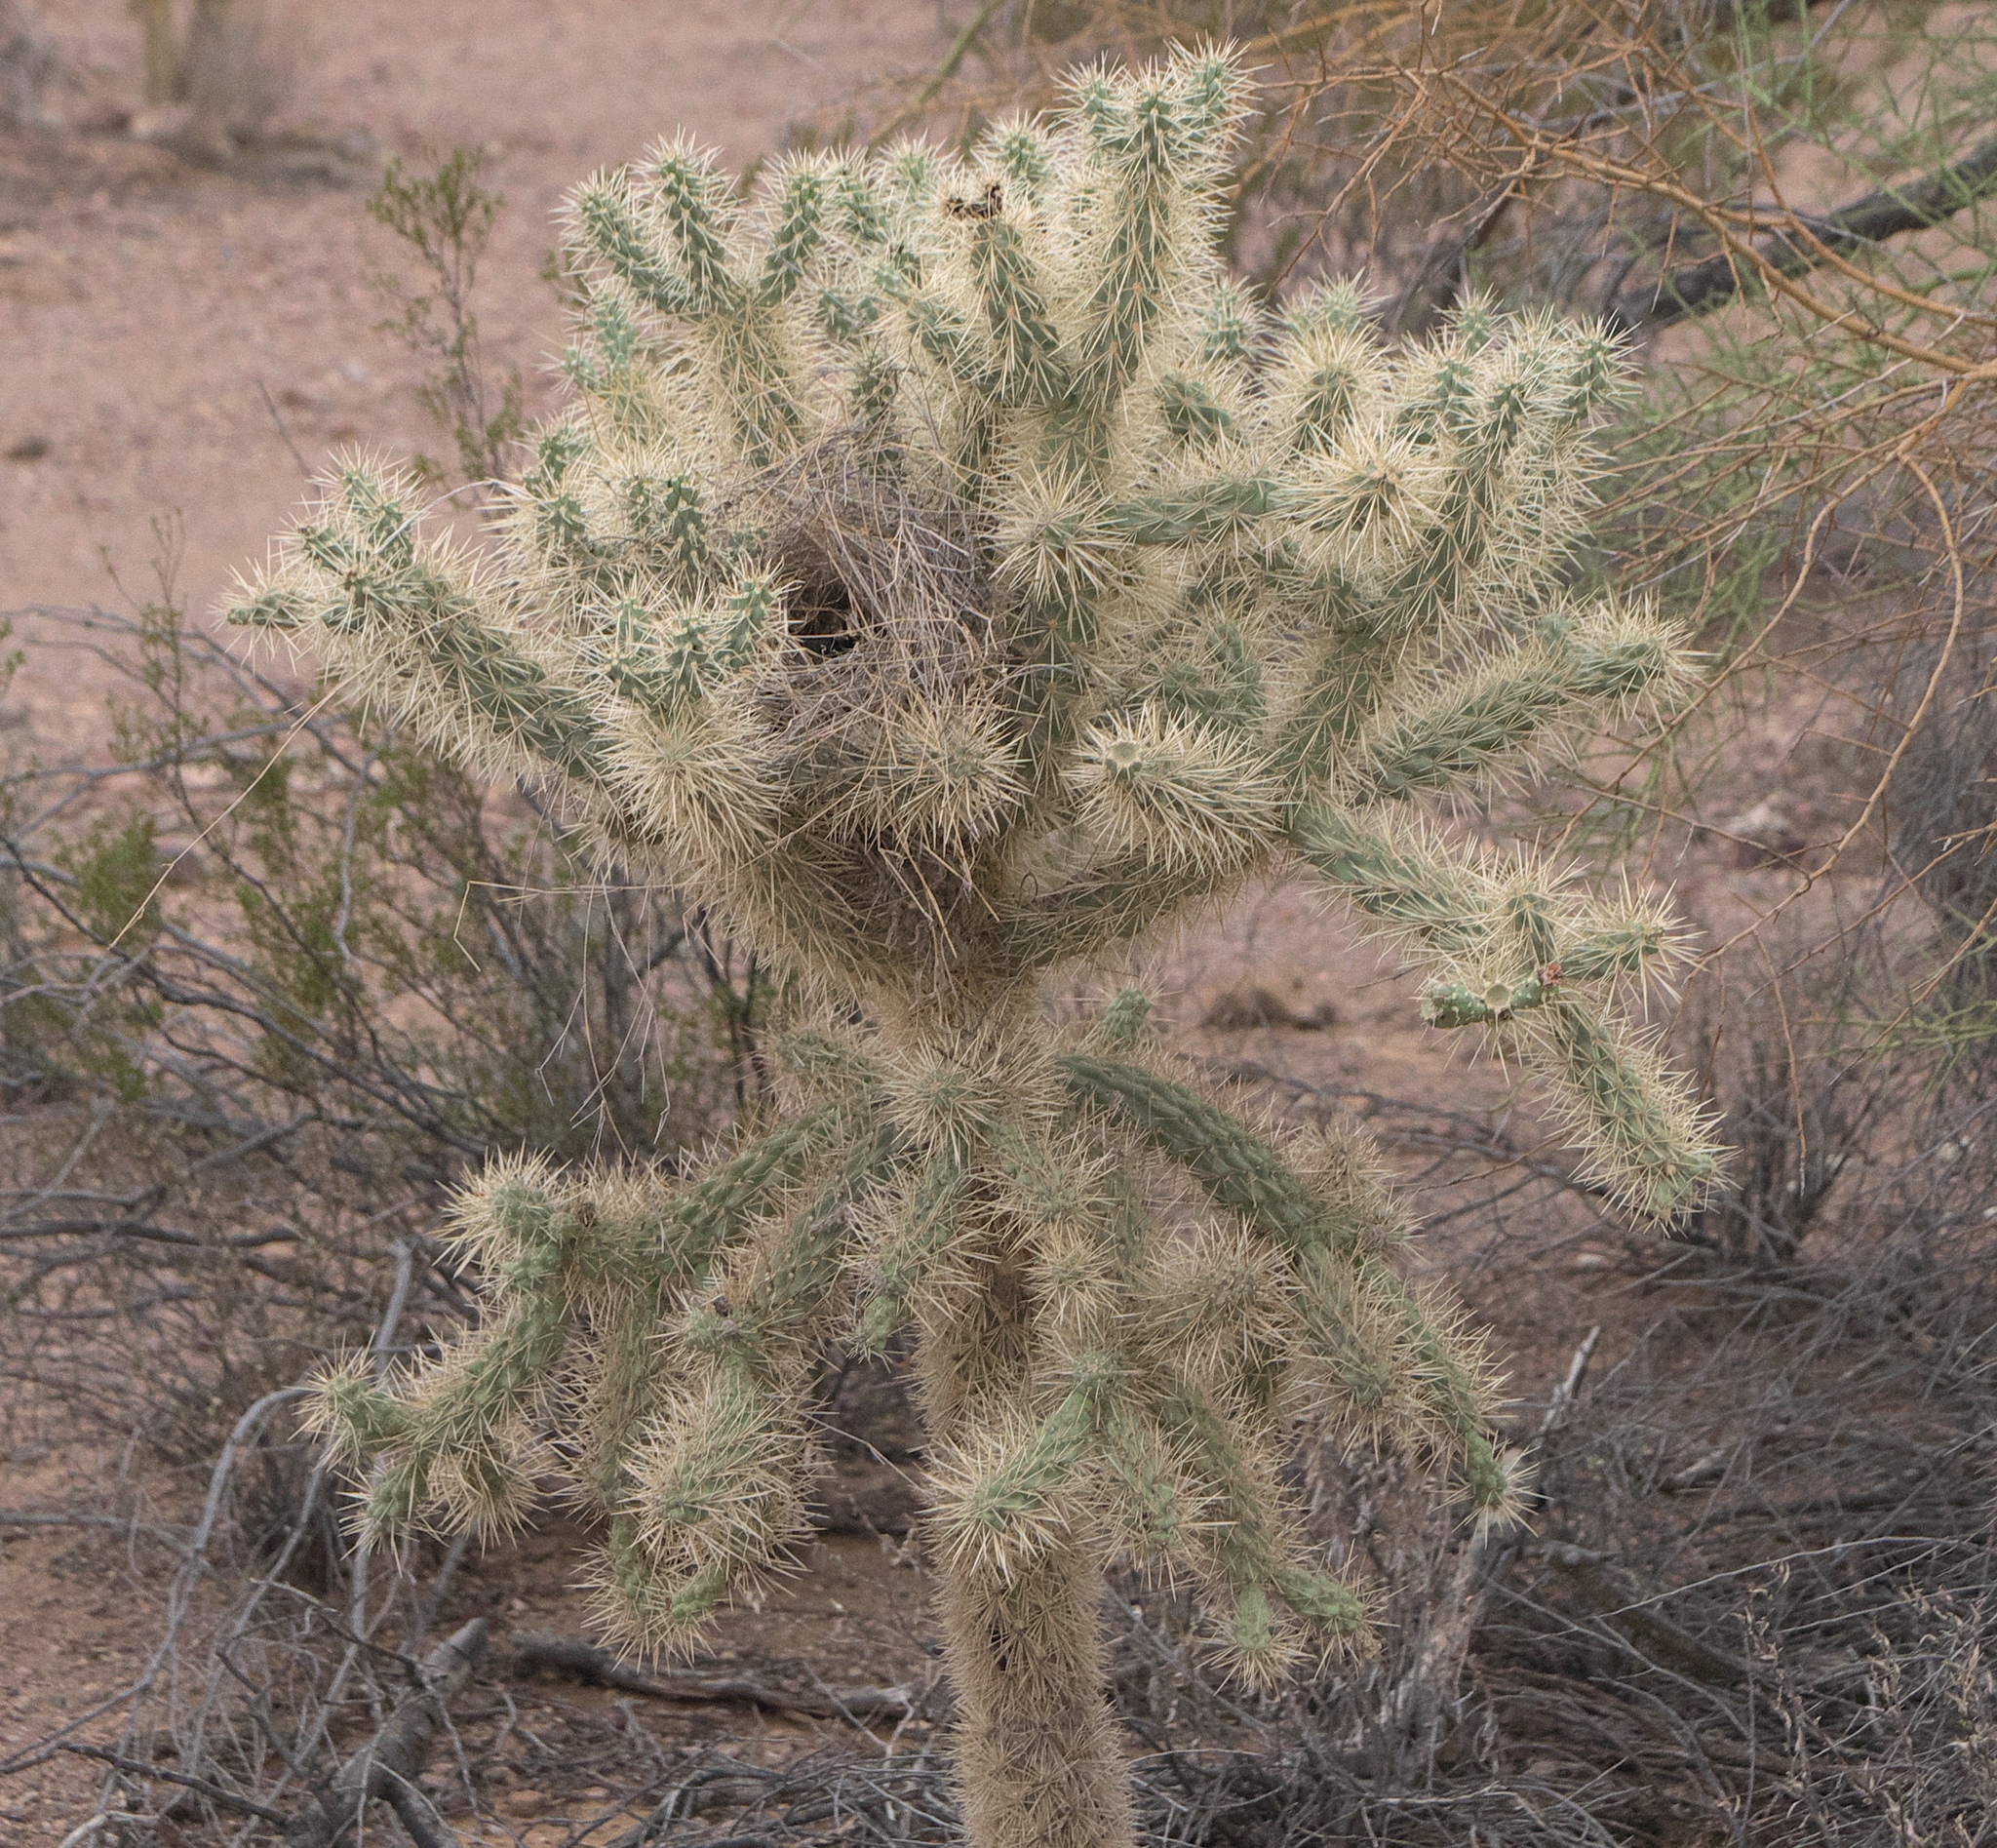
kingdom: Plantae
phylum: Tracheophyta
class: Magnoliopsida
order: Caryophyllales
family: Cactaceae
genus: Cylindropuntia
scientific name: Cylindropuntia fulgida
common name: Jumping cholla
